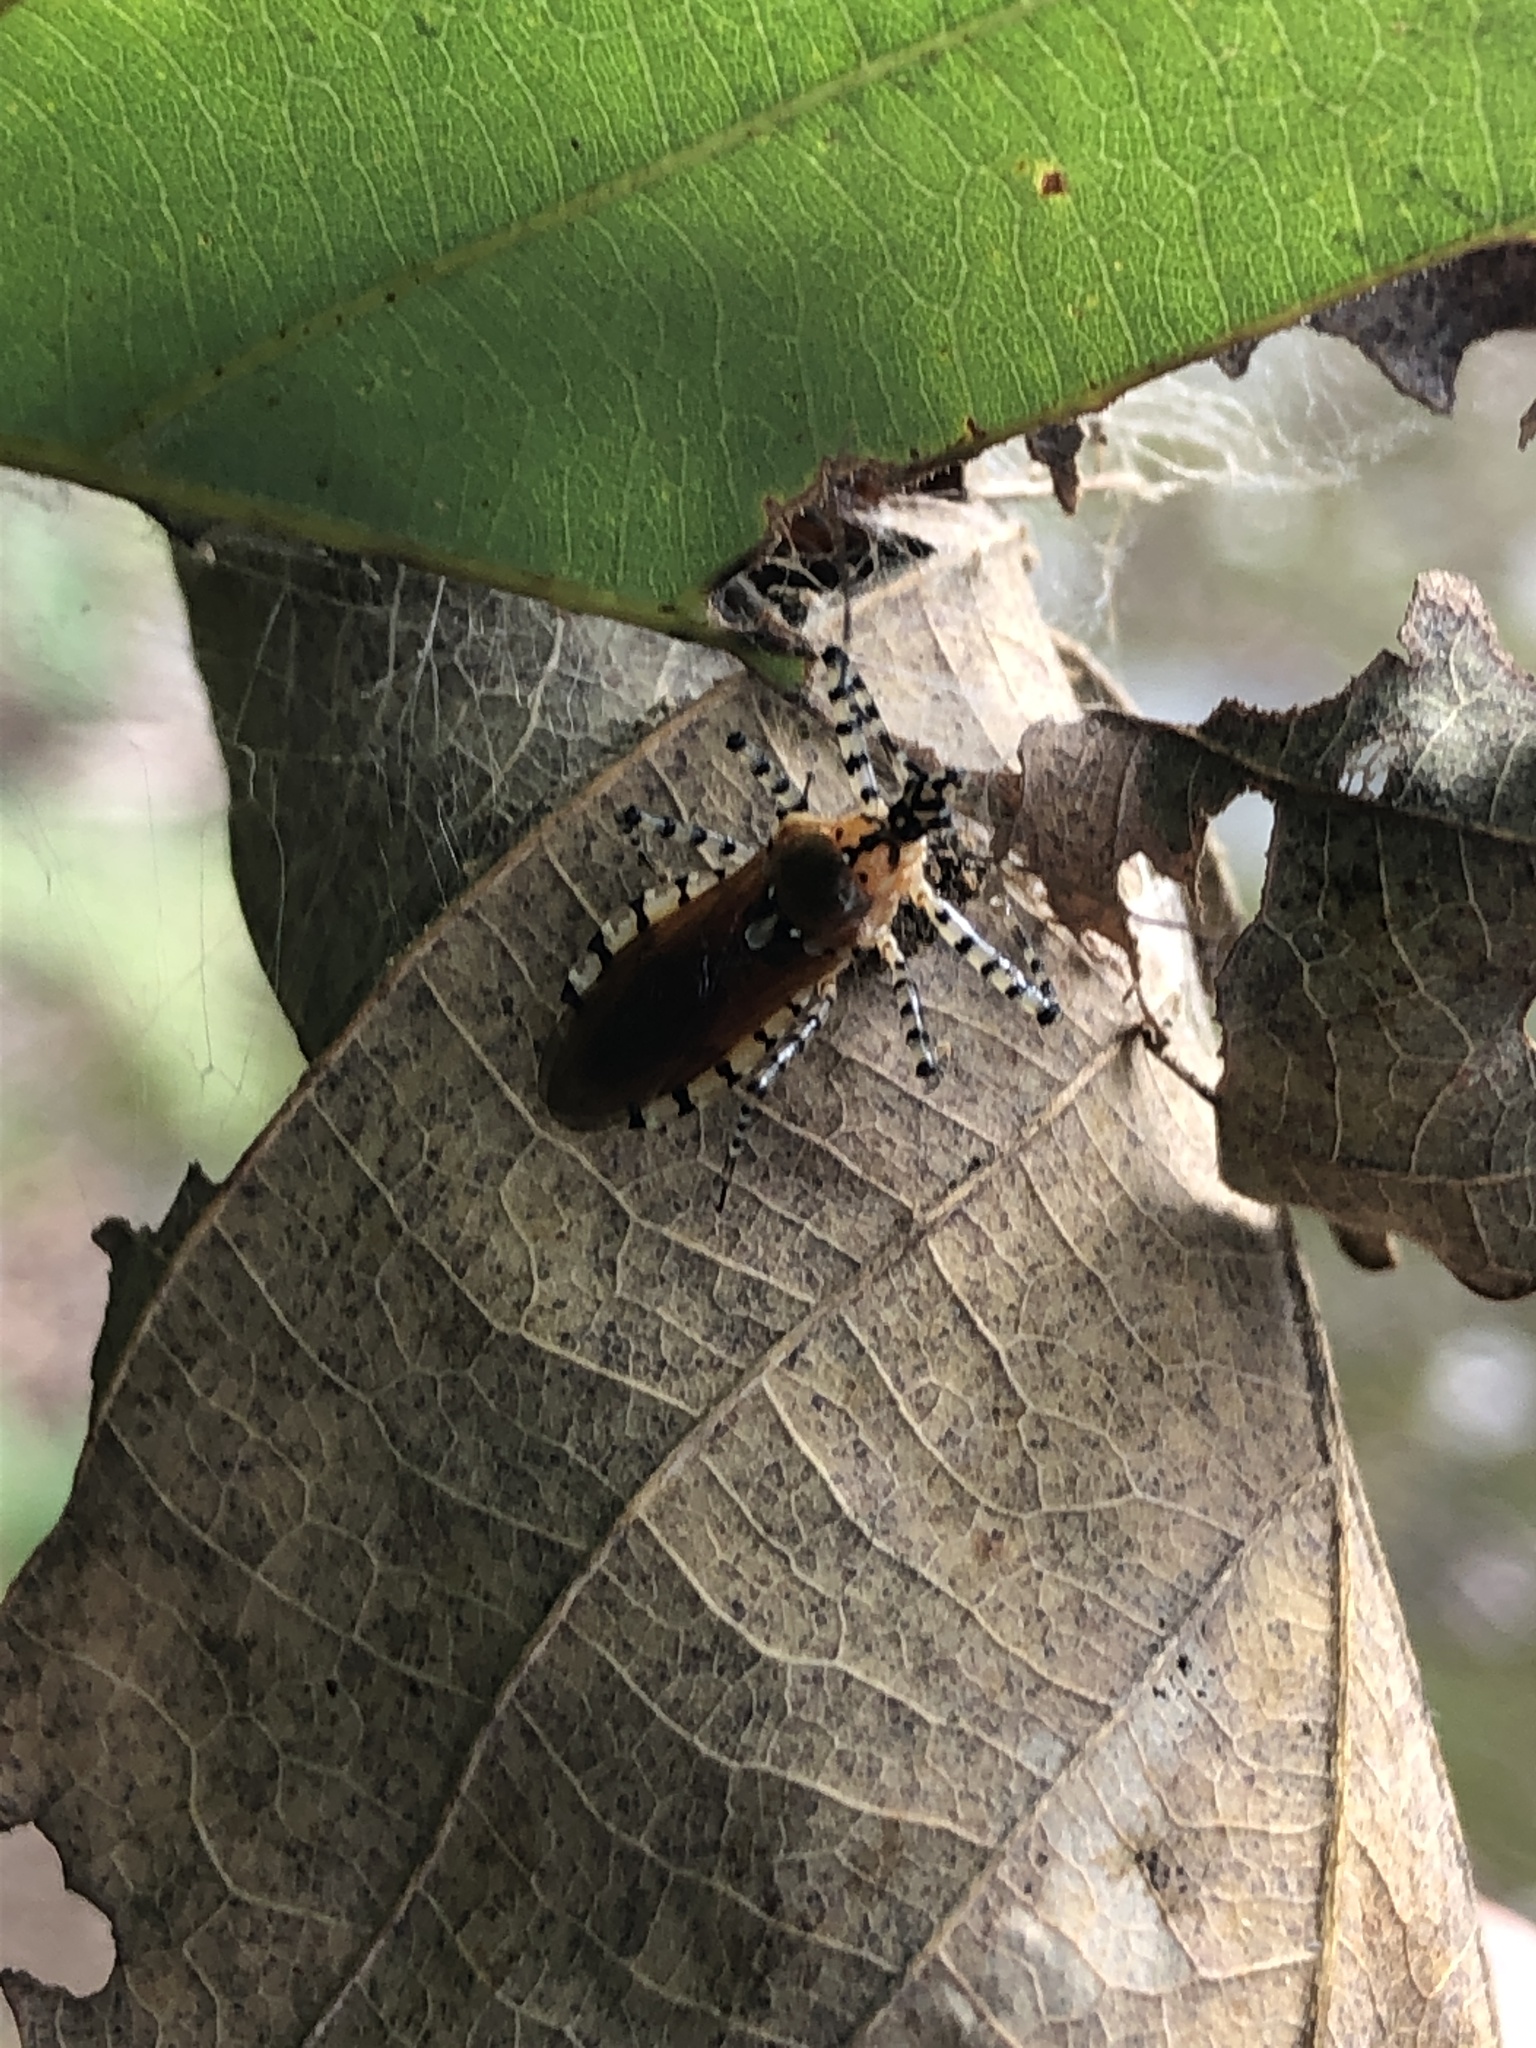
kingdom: Animalia
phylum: Arthropoda
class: Insecta
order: Hemiptera
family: Reduviidae
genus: Pselliopus
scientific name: Pselliopus cinctus
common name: Ringed assassin bug
